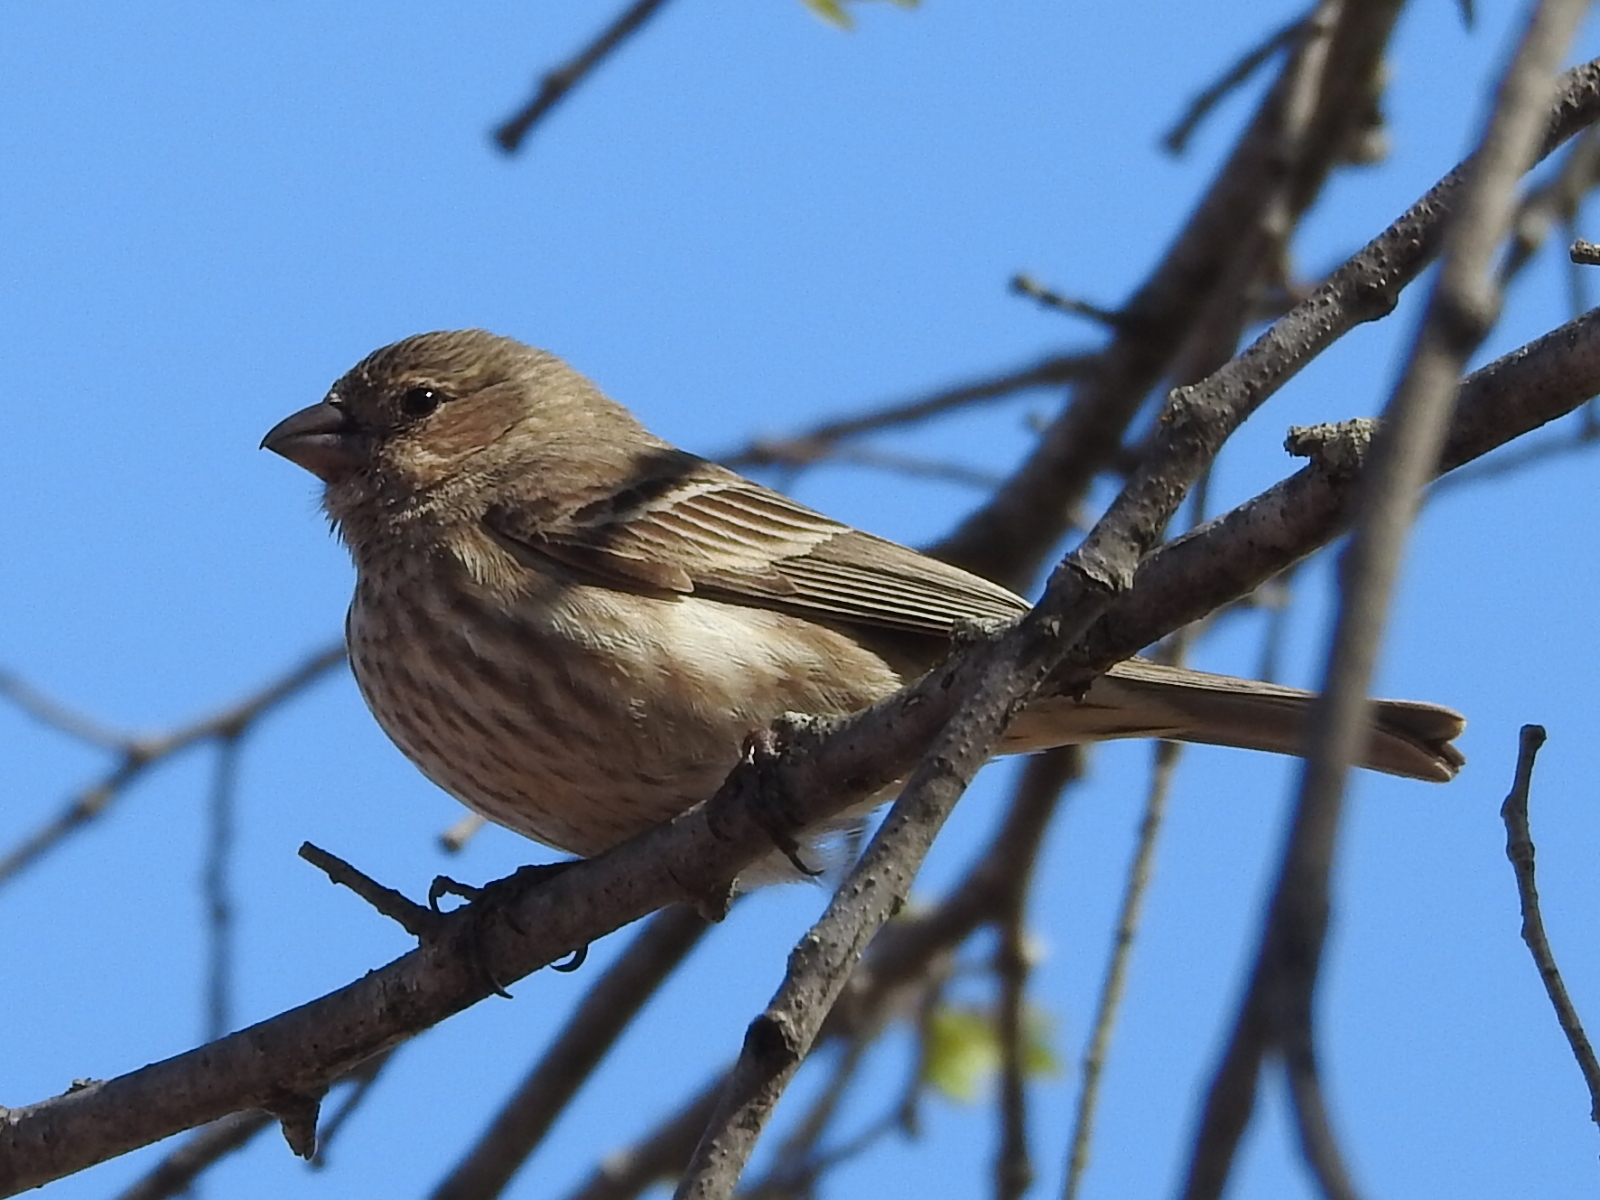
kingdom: Animalia
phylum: Chordata
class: Aves
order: Passeriformes
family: Fringillidae
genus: Haemorhous
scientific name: Haemorhous mexicanus
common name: House finch
